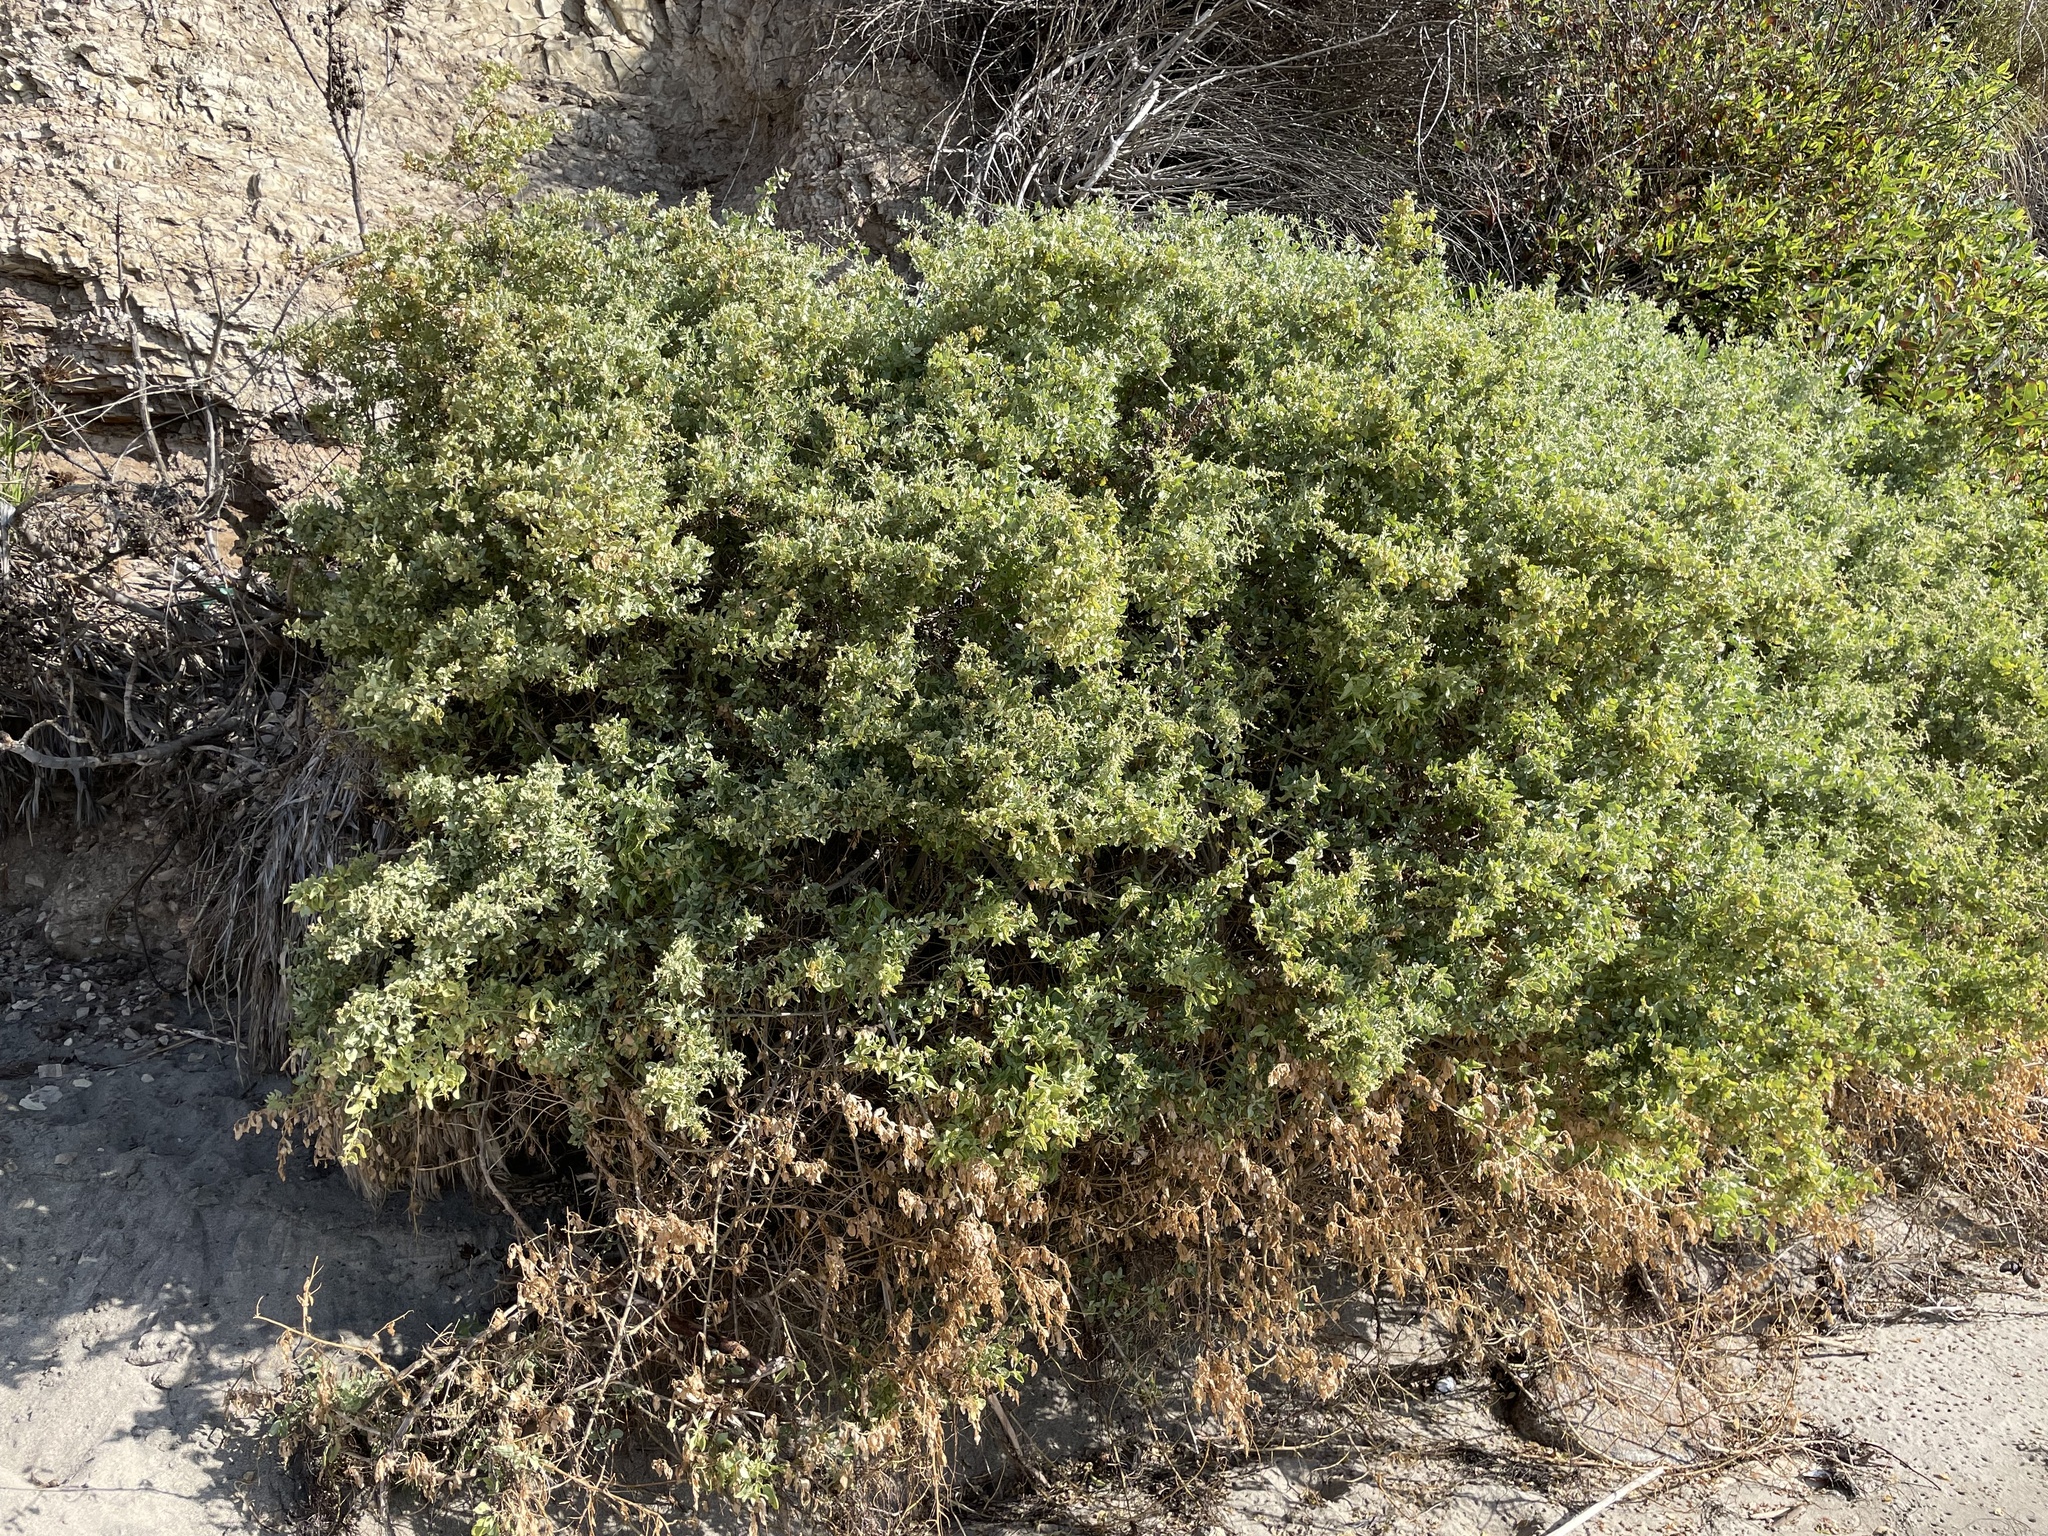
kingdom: Plantae
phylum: Tracheophyta
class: Magnoliopsida
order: Caryophyllales
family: Amaranthaceae
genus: Atriplex
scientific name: Atriplex lentiformis
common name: Big saltbush
